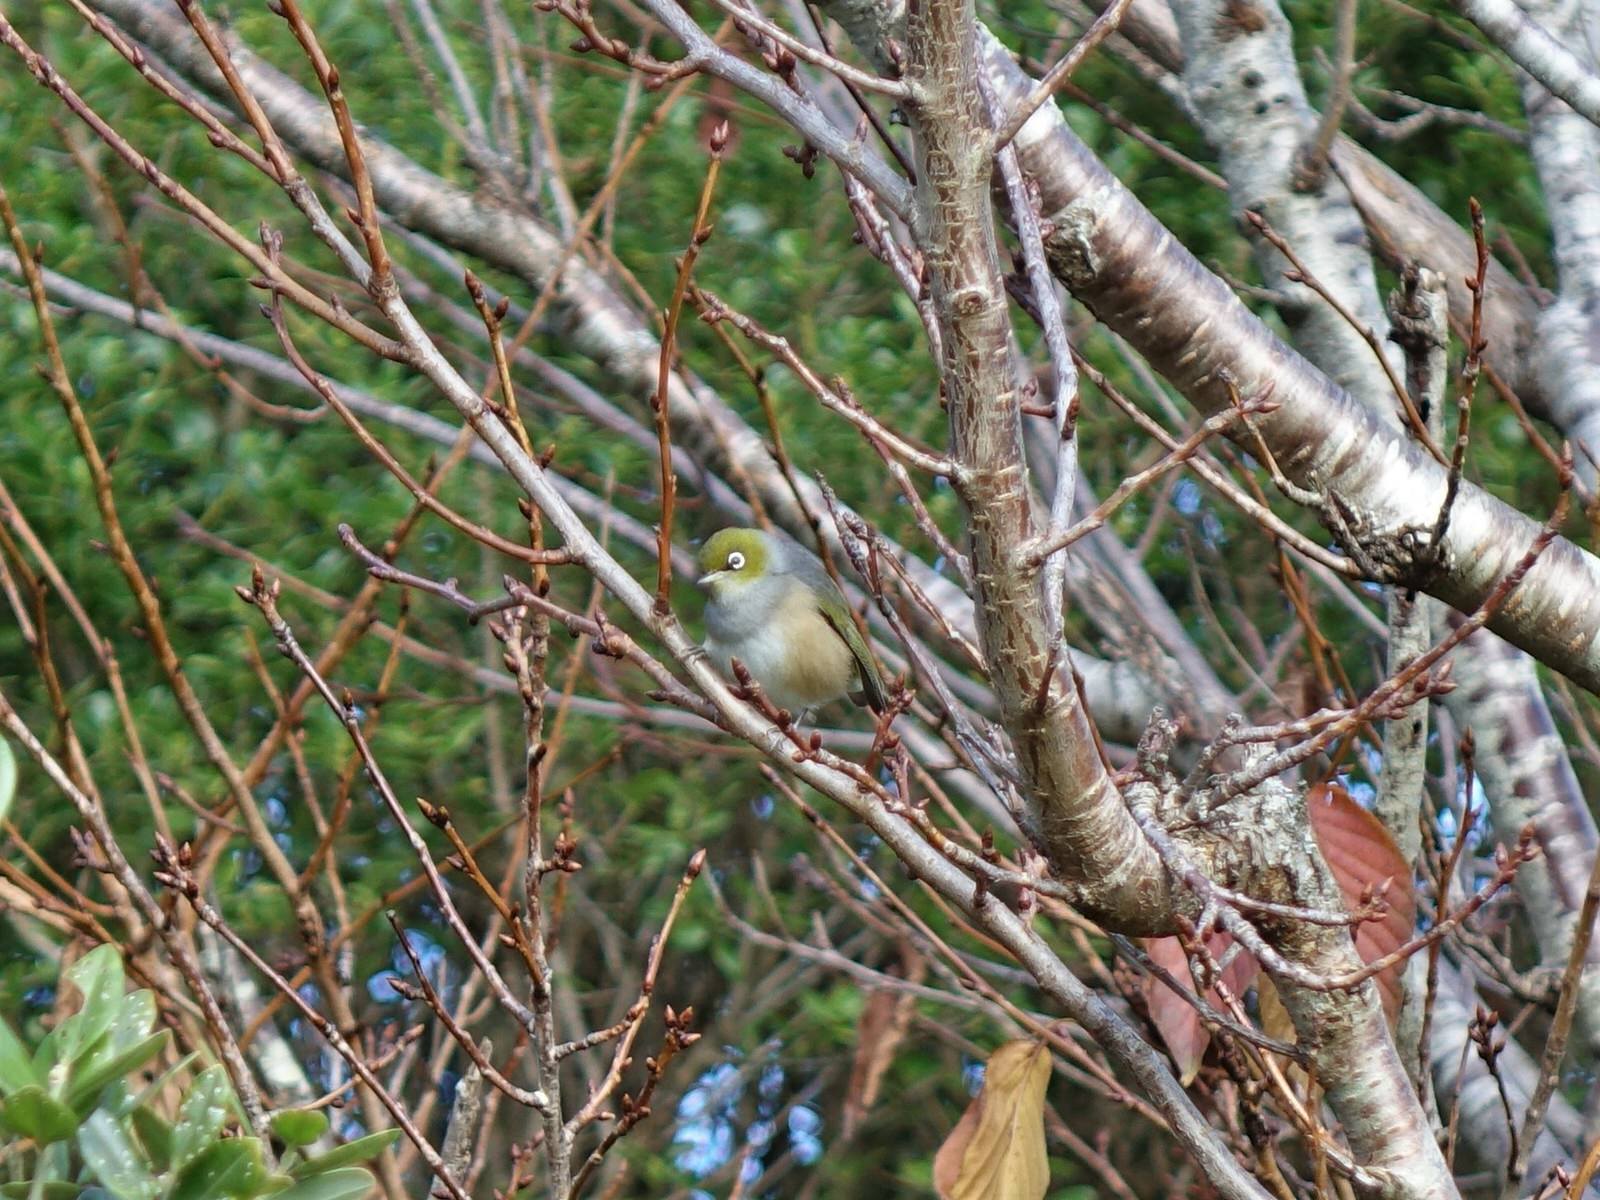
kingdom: Animalia
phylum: Chordata
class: Aves
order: Passeriformes
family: Zosteropidae
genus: Zosterops
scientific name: Zosterops lateralis
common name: Silvereye
